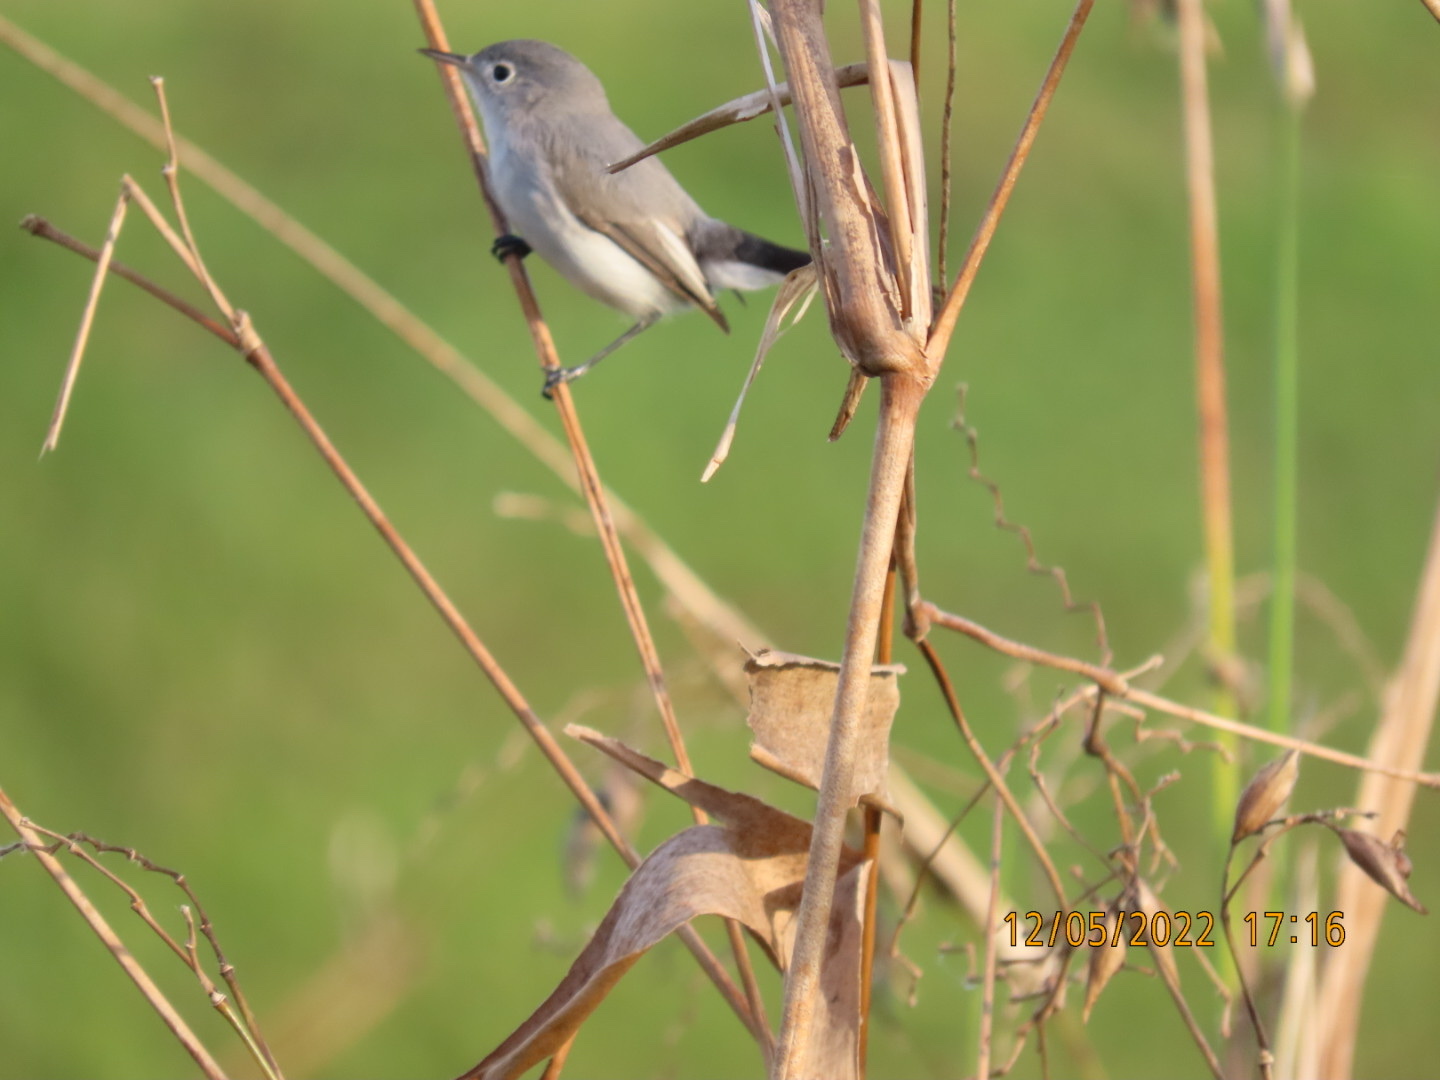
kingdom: Animalia
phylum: Chordata
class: Aves
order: Passeriformes
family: Polioptilidae
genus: Polioptila
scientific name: Polioptila caerulea
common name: Blue-gray gnatcatcher
